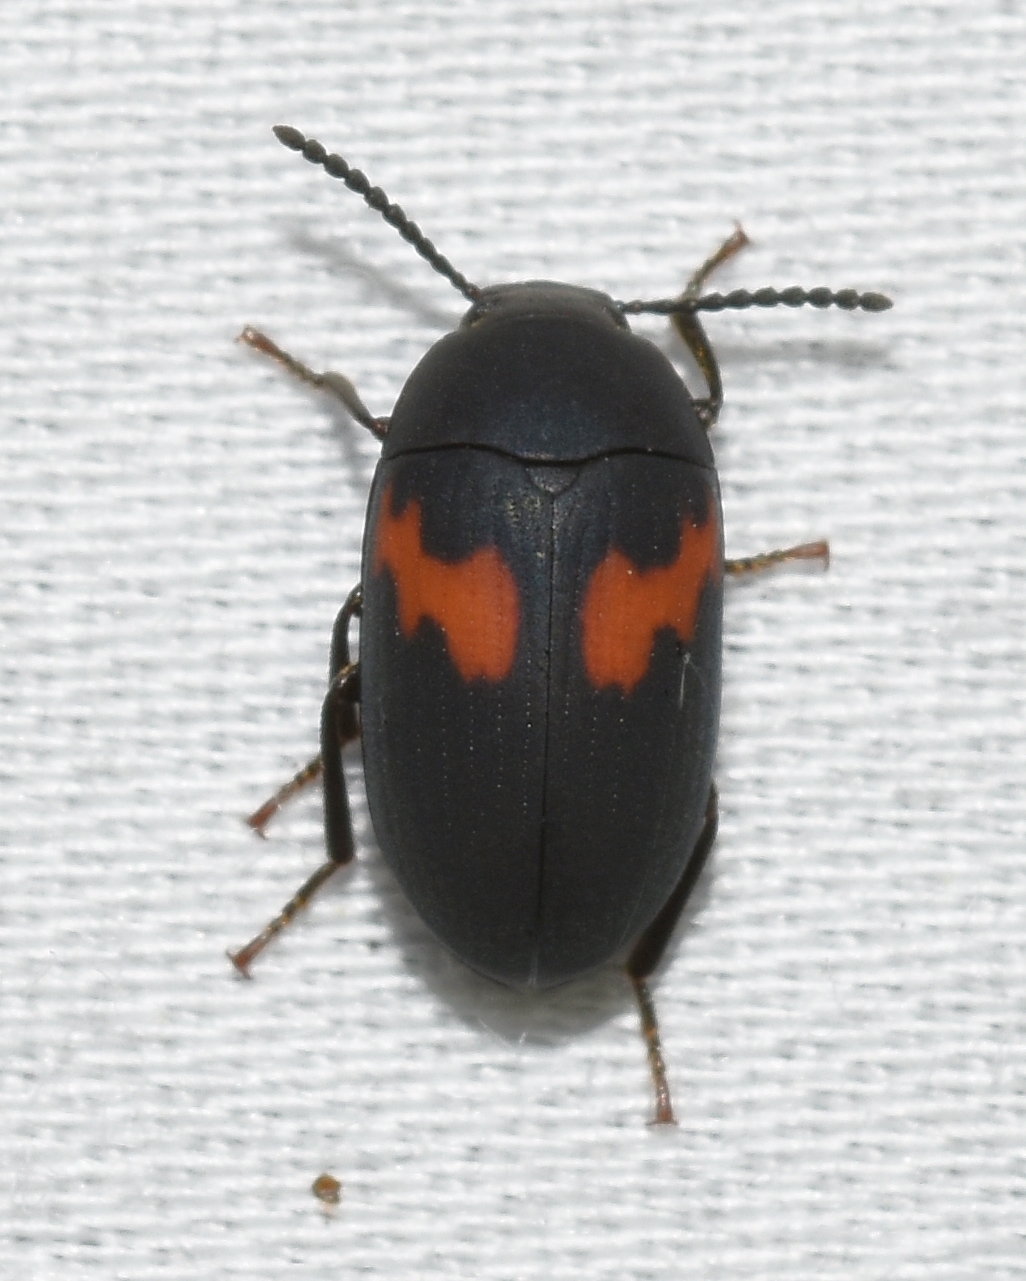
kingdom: Animalia
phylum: Arthropoda
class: Insecta
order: Coleoptera
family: Tenebrionidae
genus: Platydema
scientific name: Platydema elliptica
